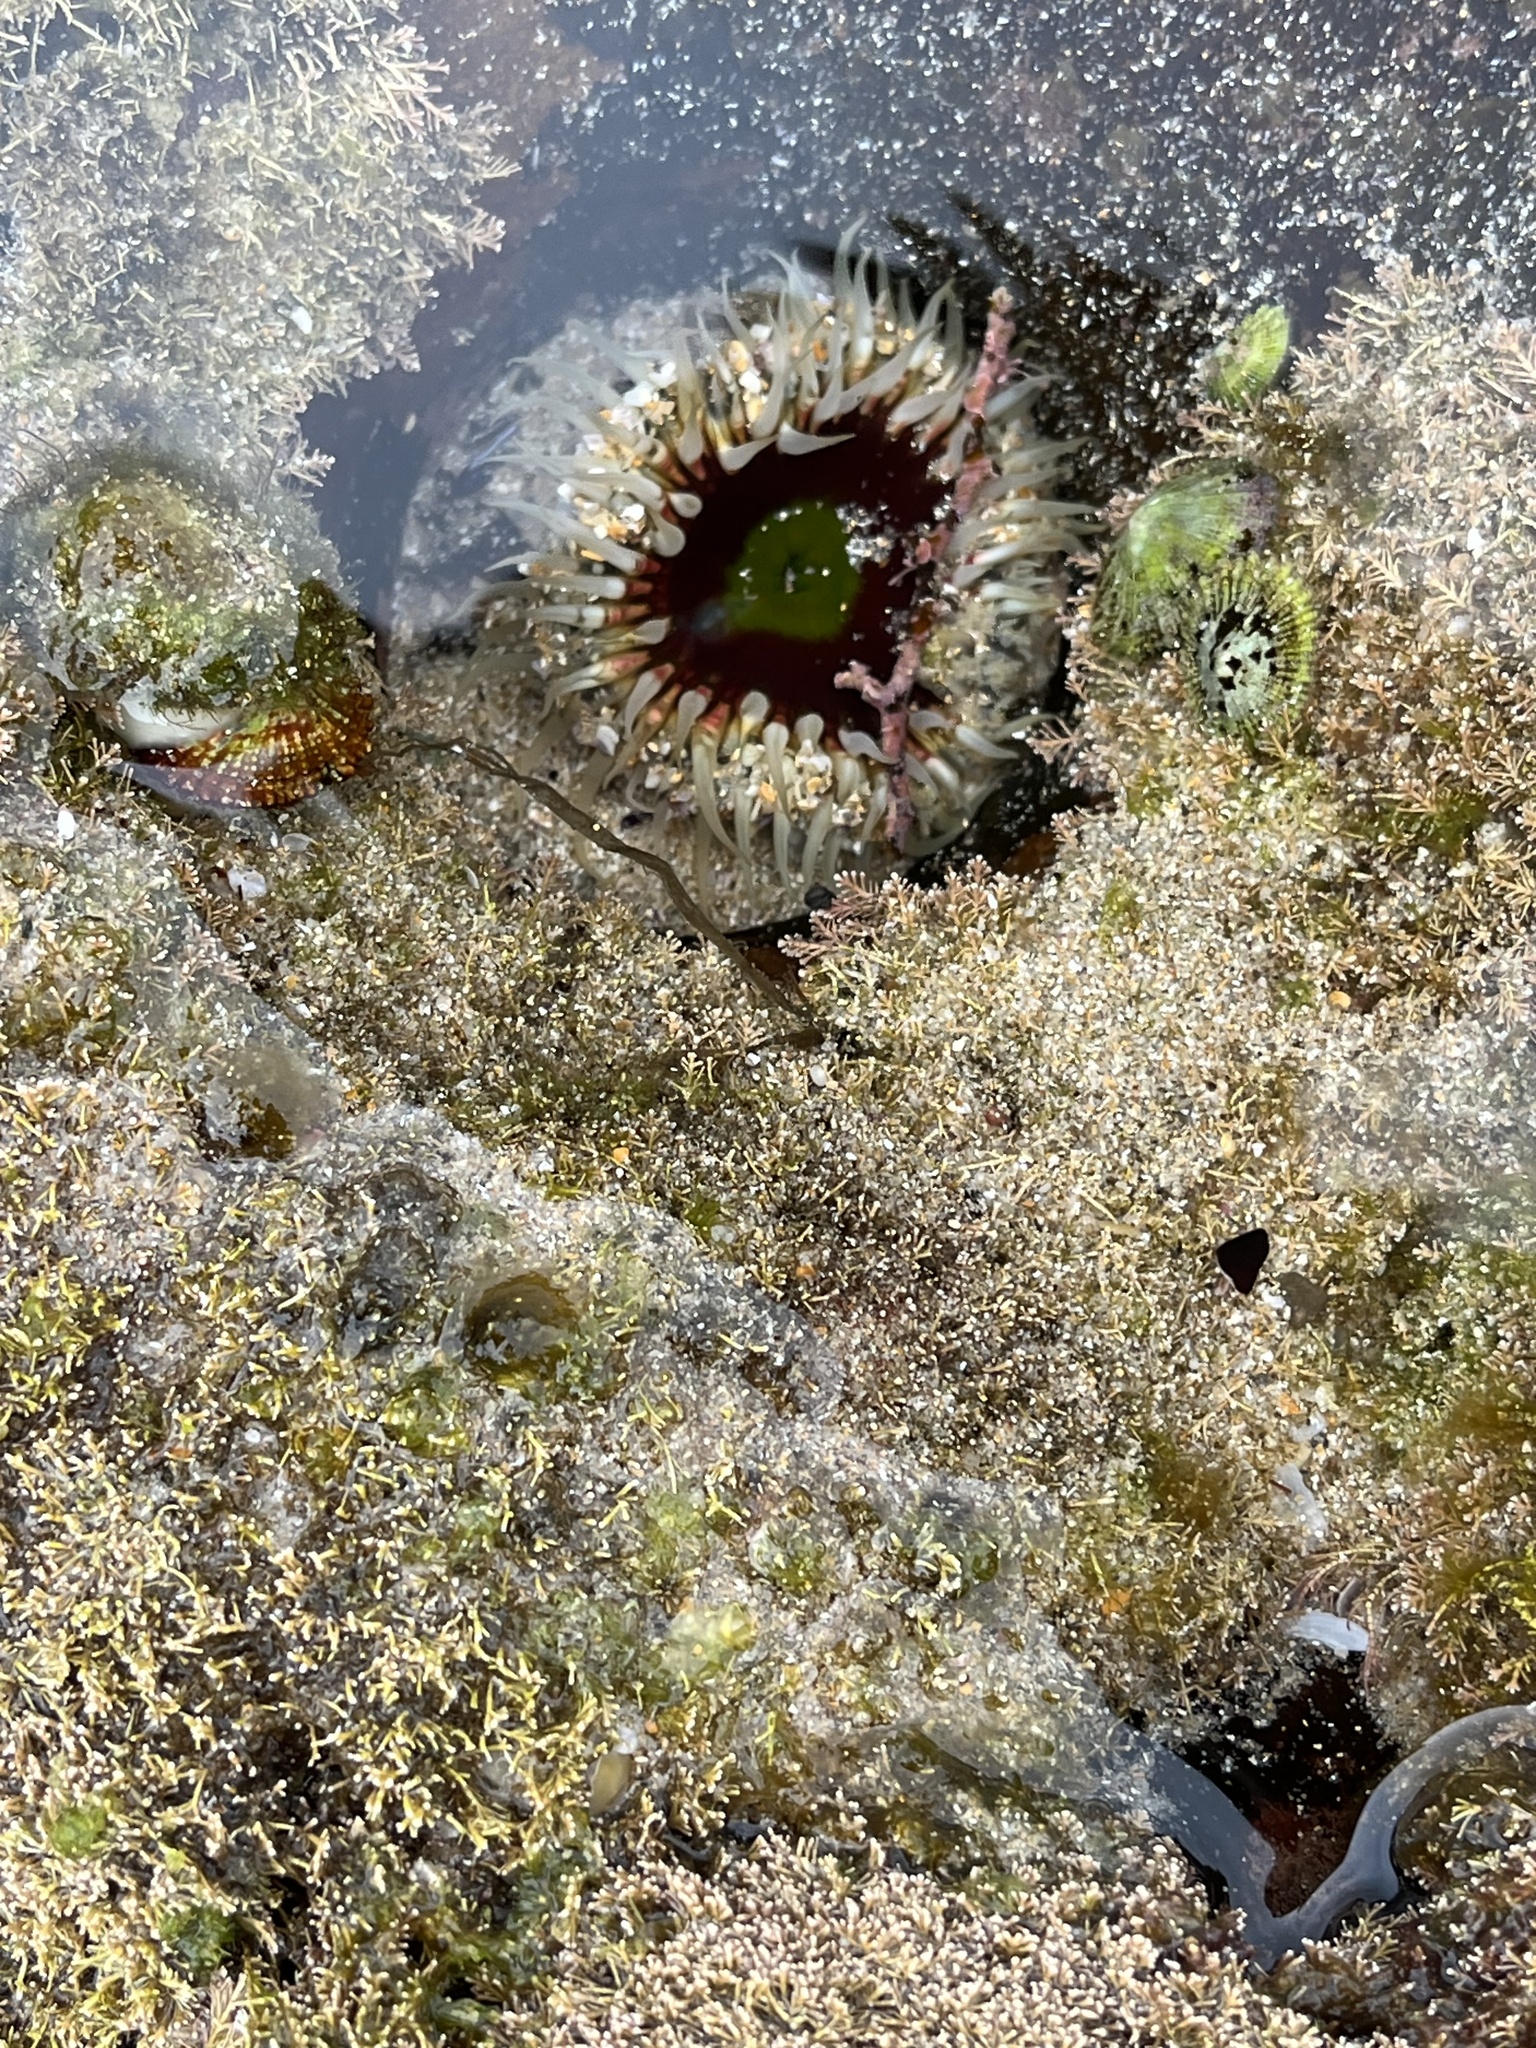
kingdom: Animalia
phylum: Cnidaria
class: Anthozoa
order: Actiniaria
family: Actiniidae
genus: Oulactis
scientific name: Oulactis muscosa
